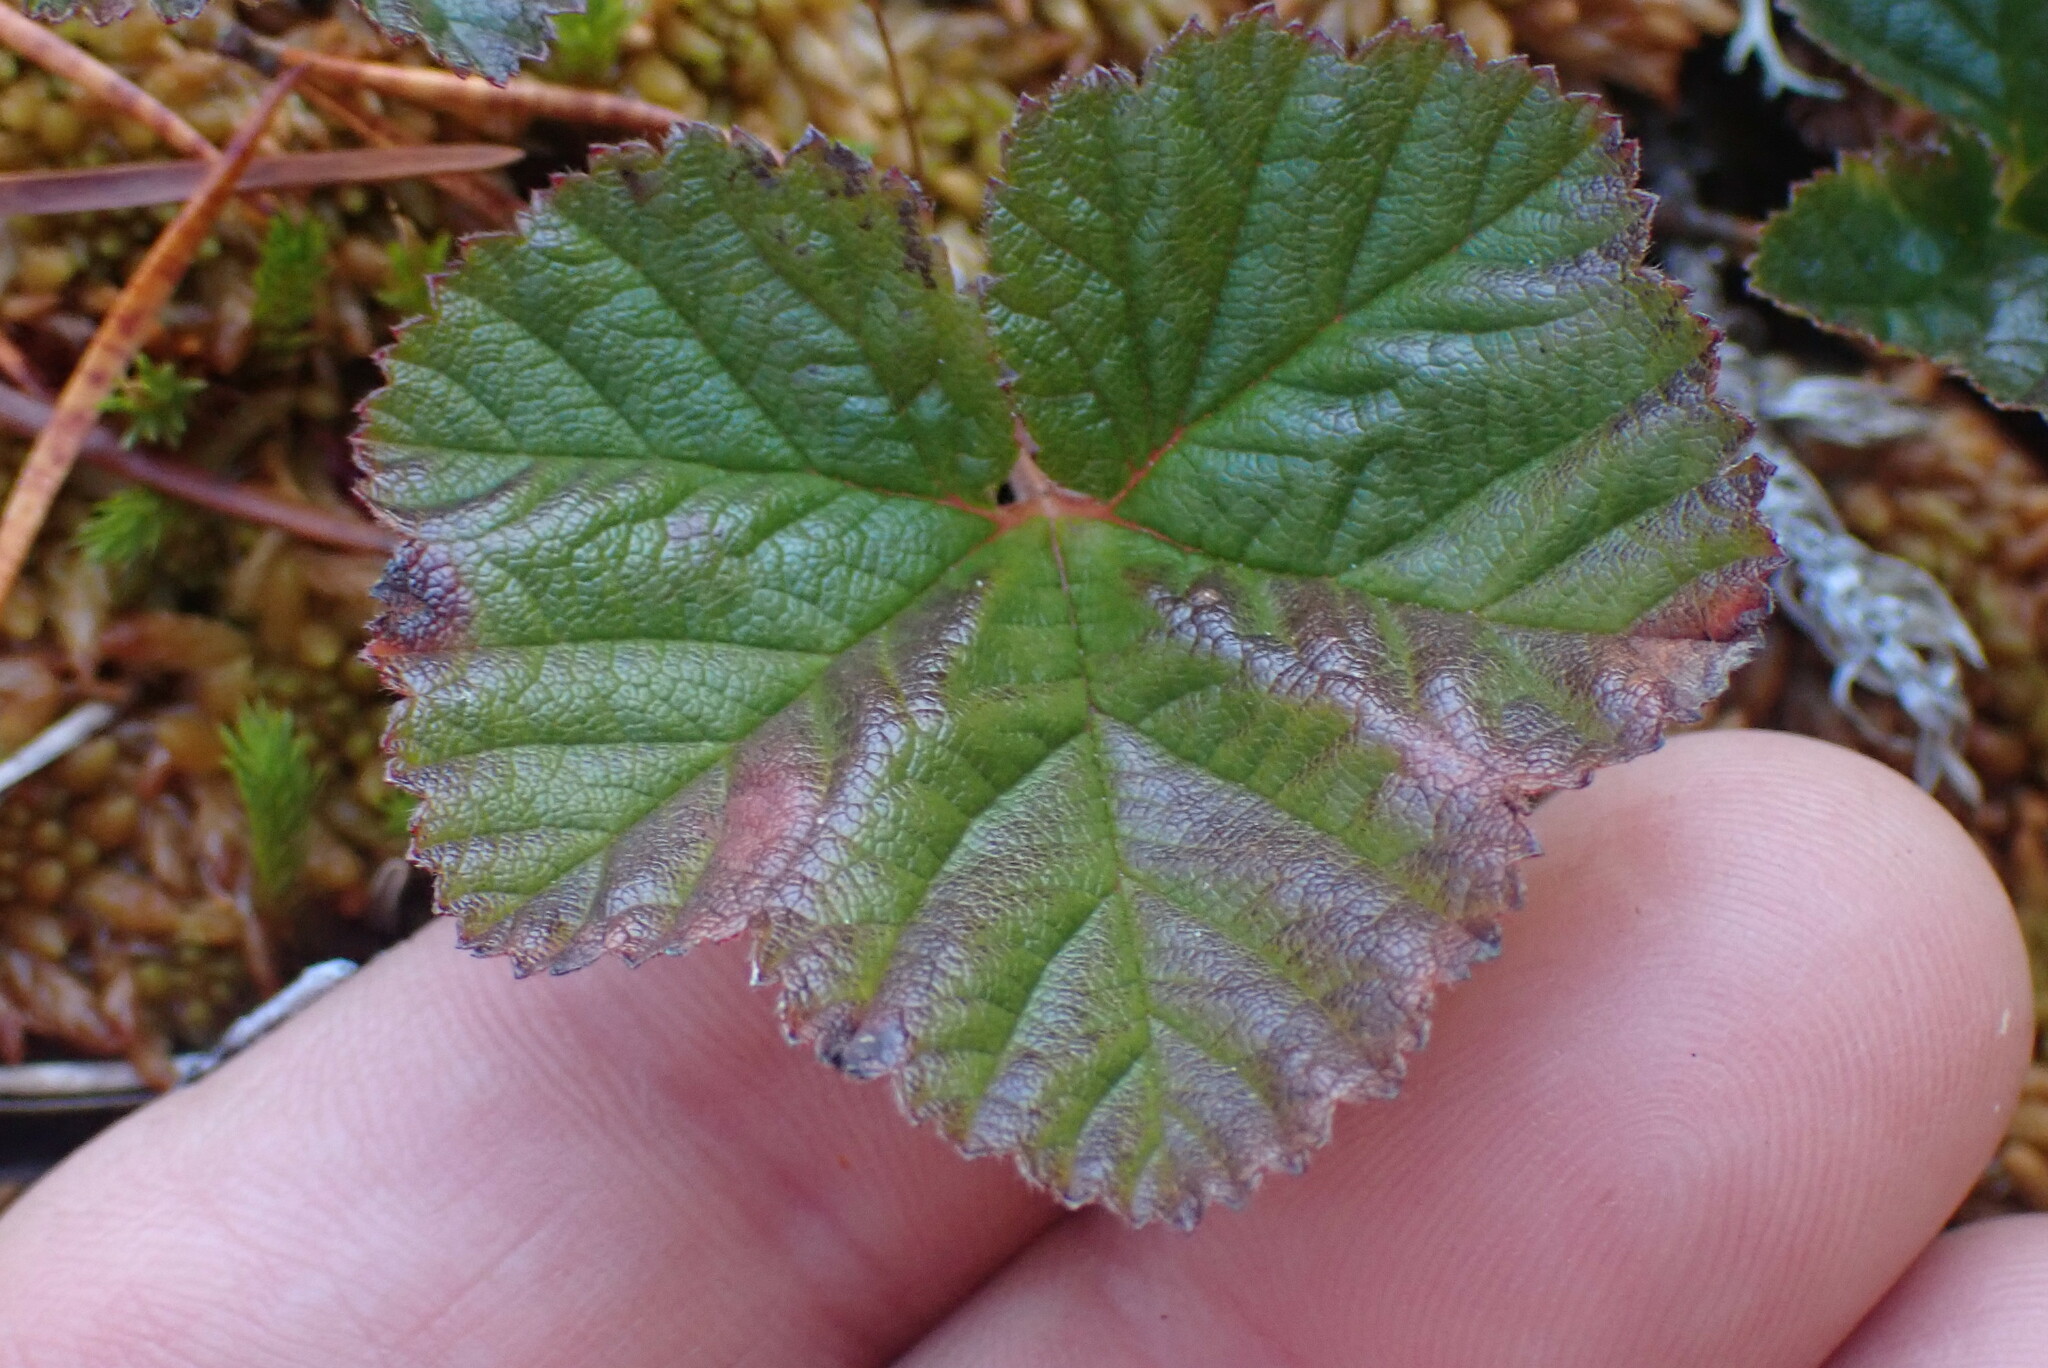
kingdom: Plantae
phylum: Tracheophyta
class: Magnoliopsida
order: Rosales
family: Rosaceae
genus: Rubus
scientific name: Rubus chamaemorus
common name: Cloudberry
